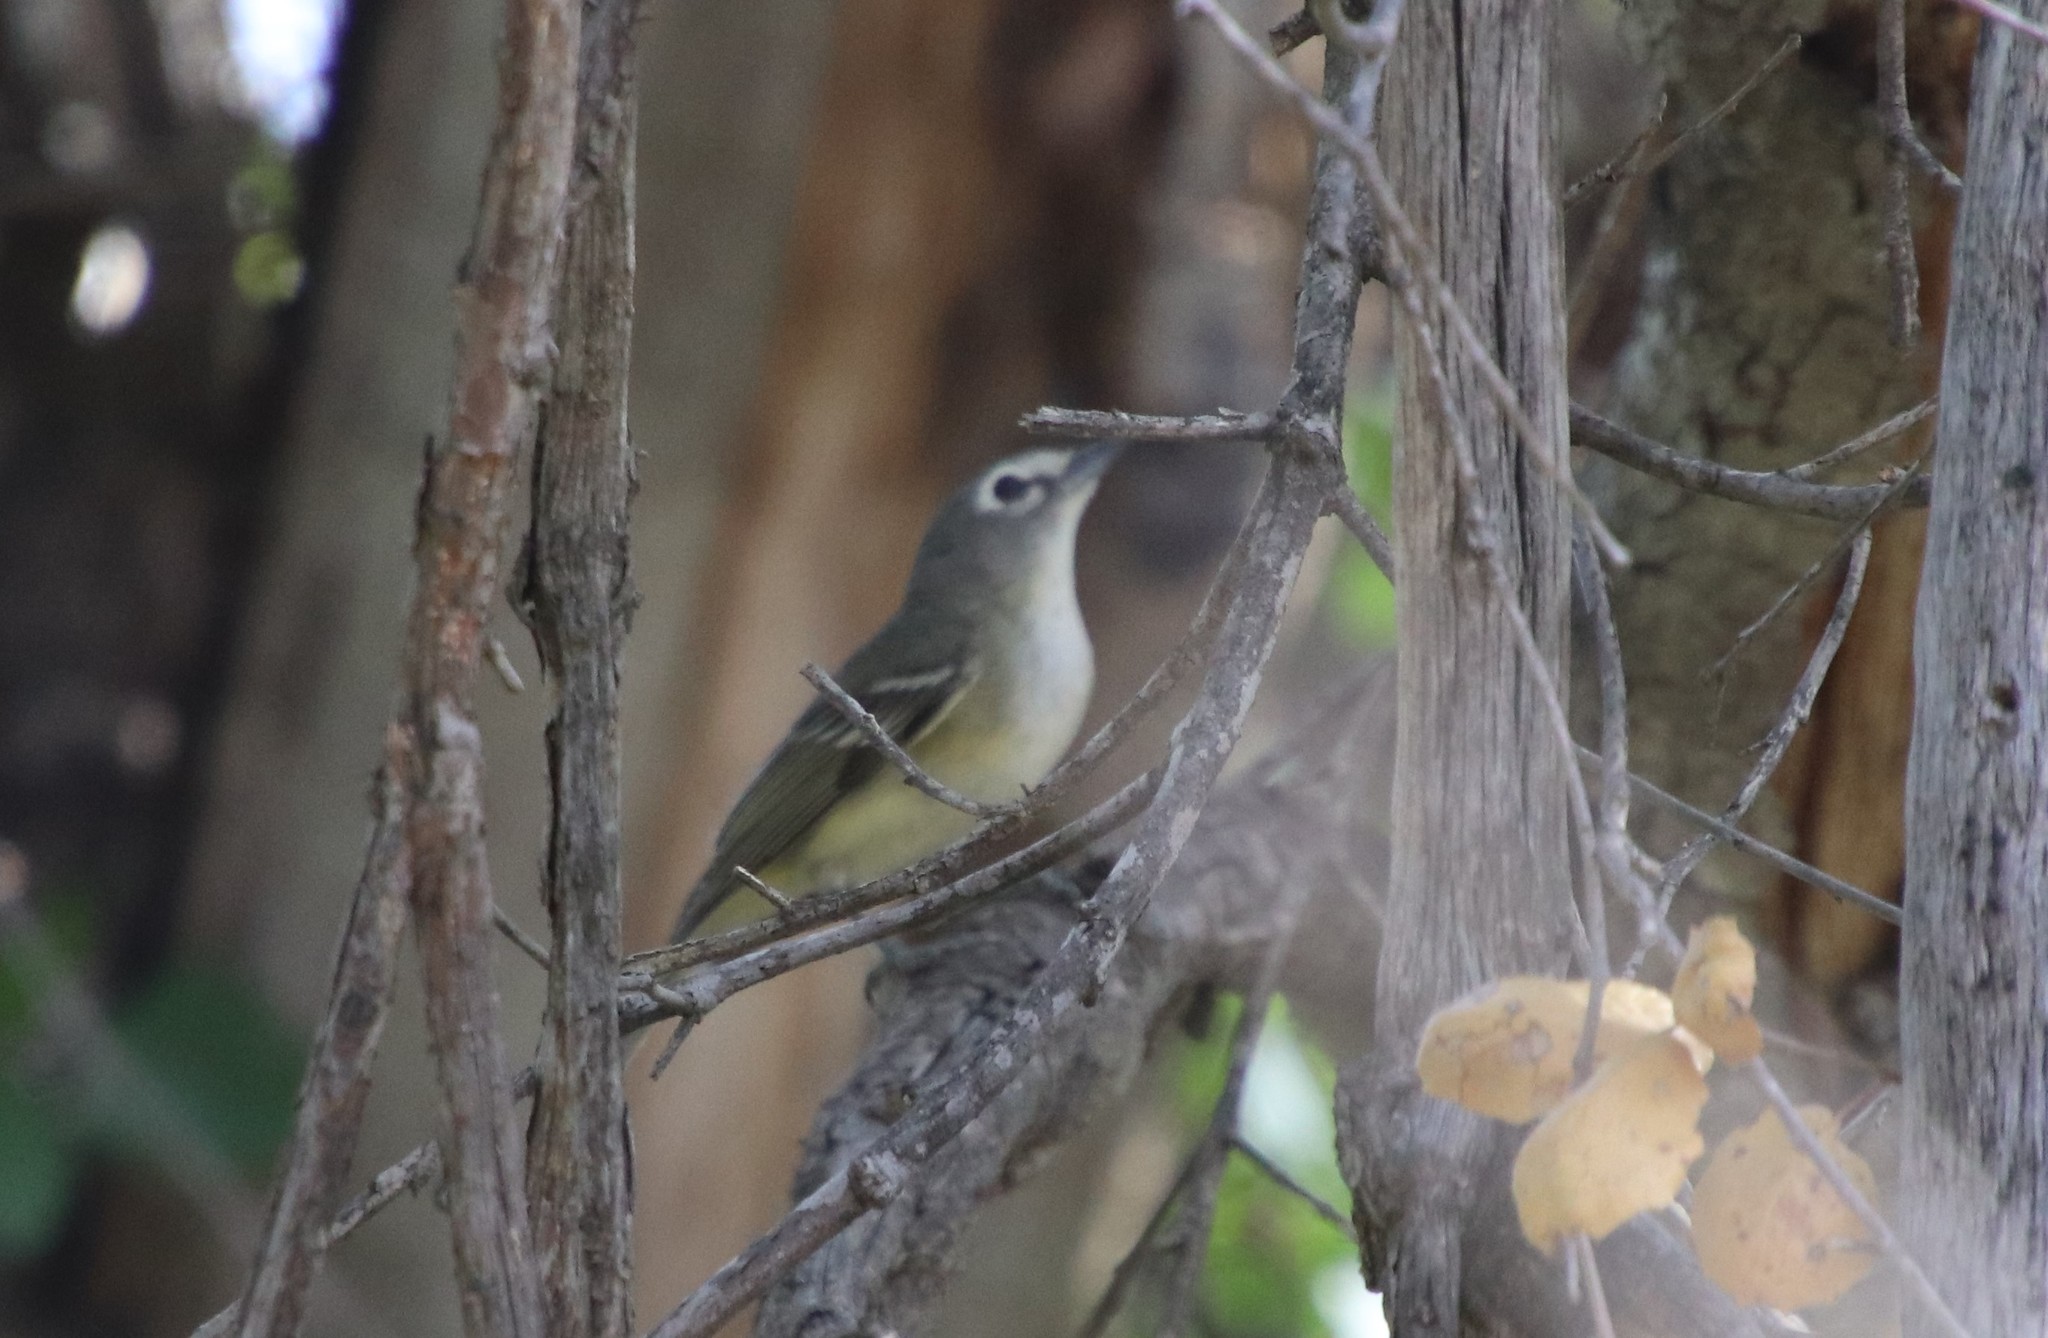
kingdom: Animalia
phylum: Chordata
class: Aves
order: Passeriformes
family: Vireonidae
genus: Vireo
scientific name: Vireo cassinii
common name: Cassin's vireo
